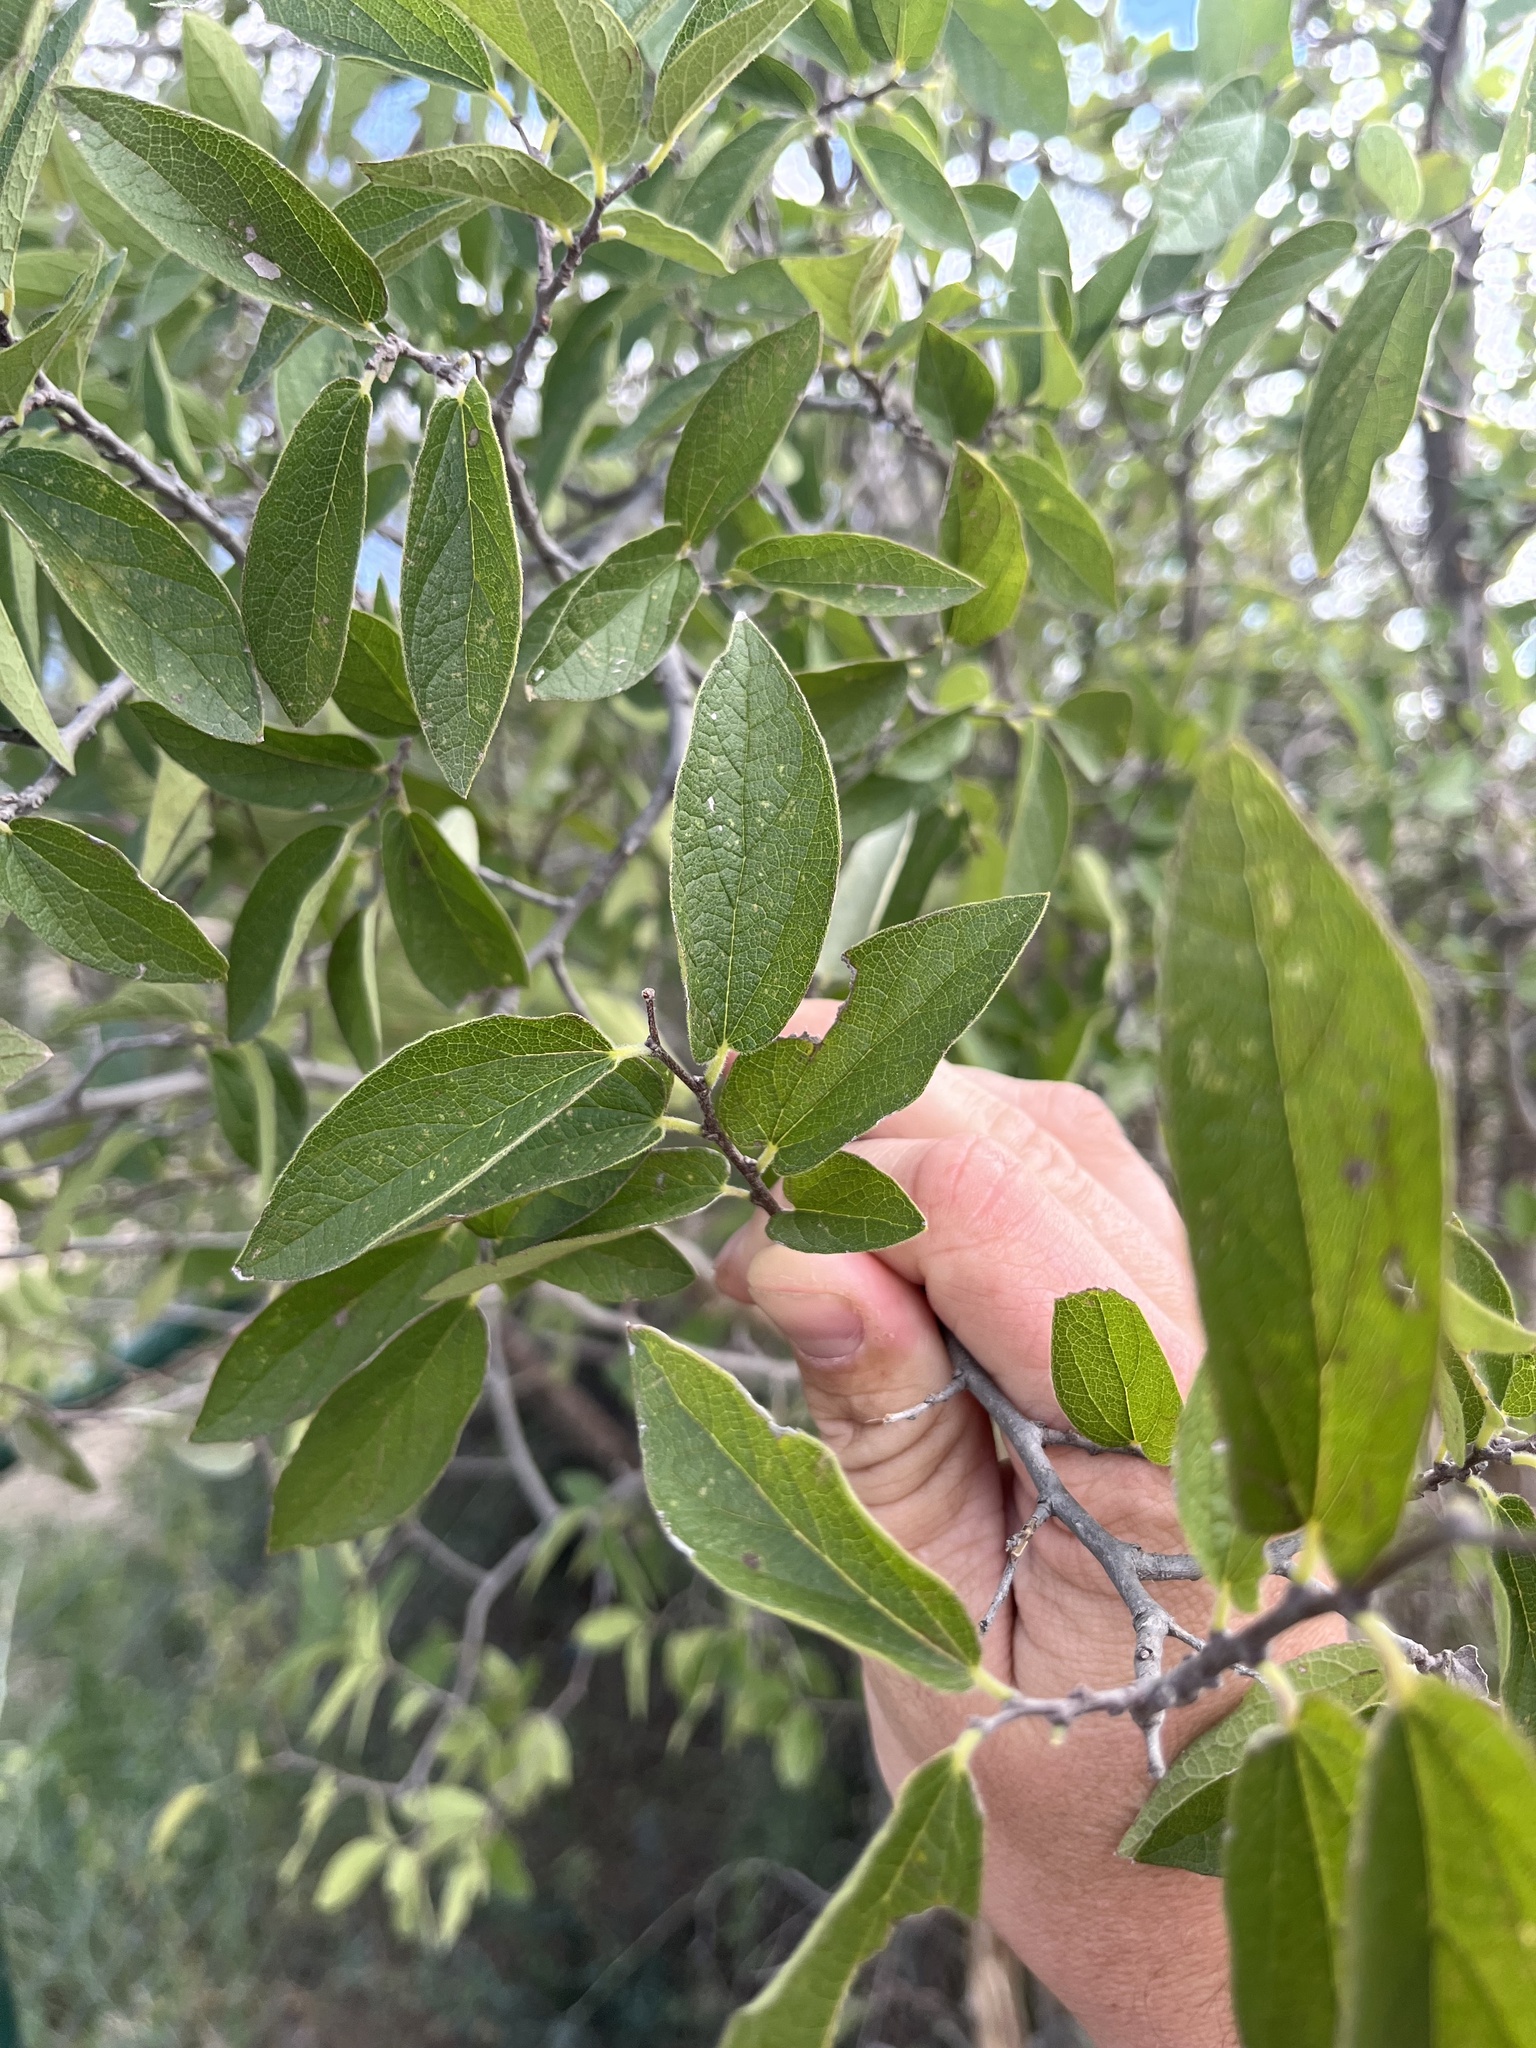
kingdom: Plantae
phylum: Tracheophyta
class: Magnoliopsida
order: Rosales
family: Cannabaceae
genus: Celtis
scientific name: Celtis reticulata
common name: Netleaf hackberry
